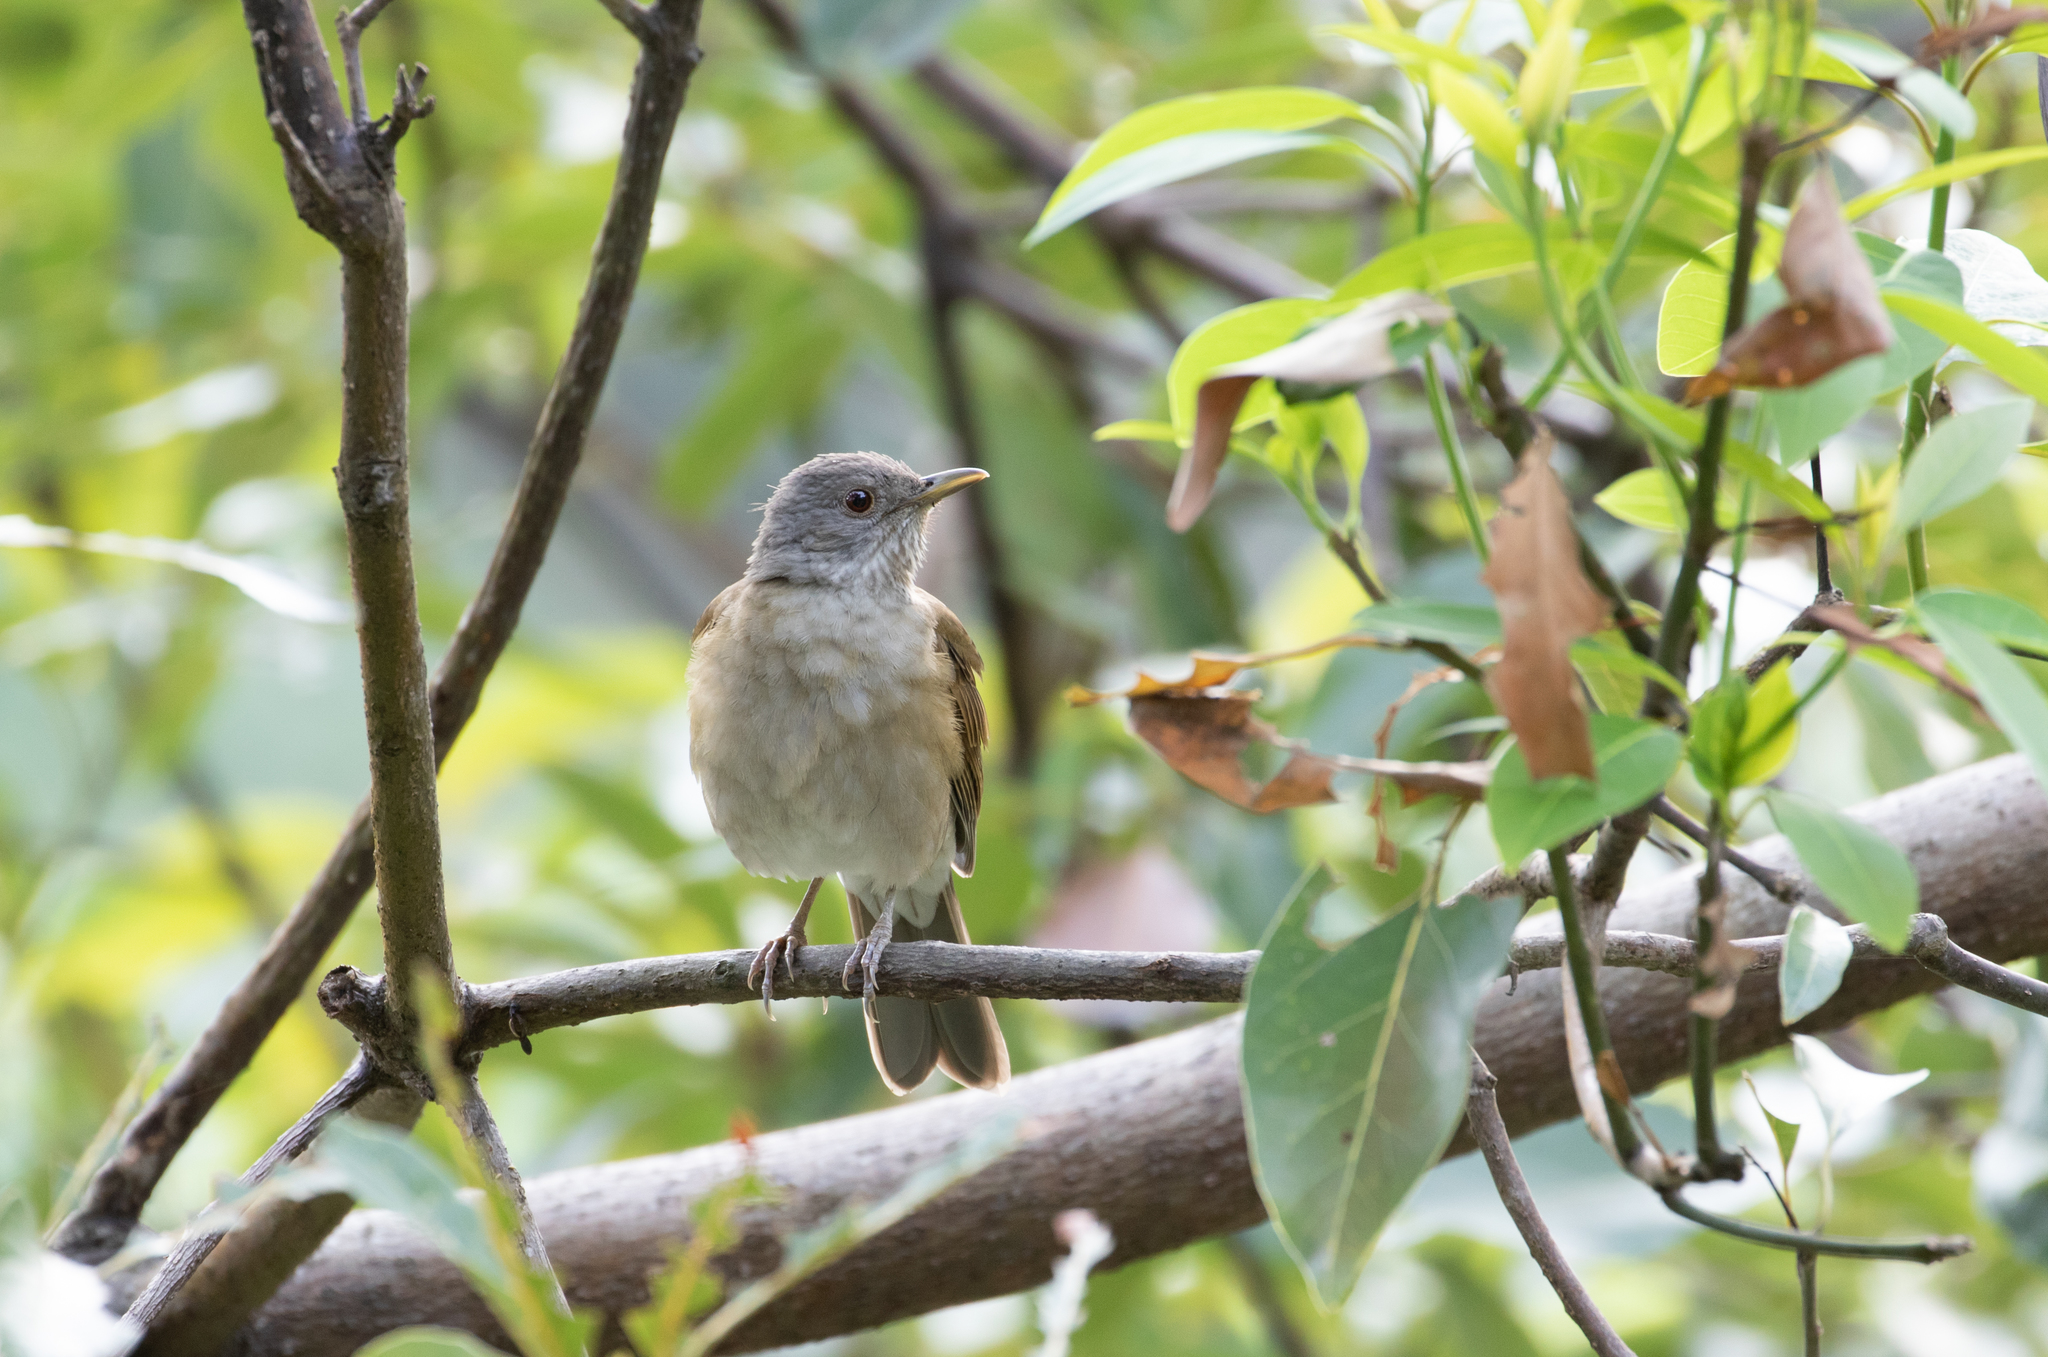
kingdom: Animalia
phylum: Chordata
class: Aves
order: Passeriformes
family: Turdidae
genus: Turdus
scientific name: Turdus leucomelas
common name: Pale-breasted thrush
